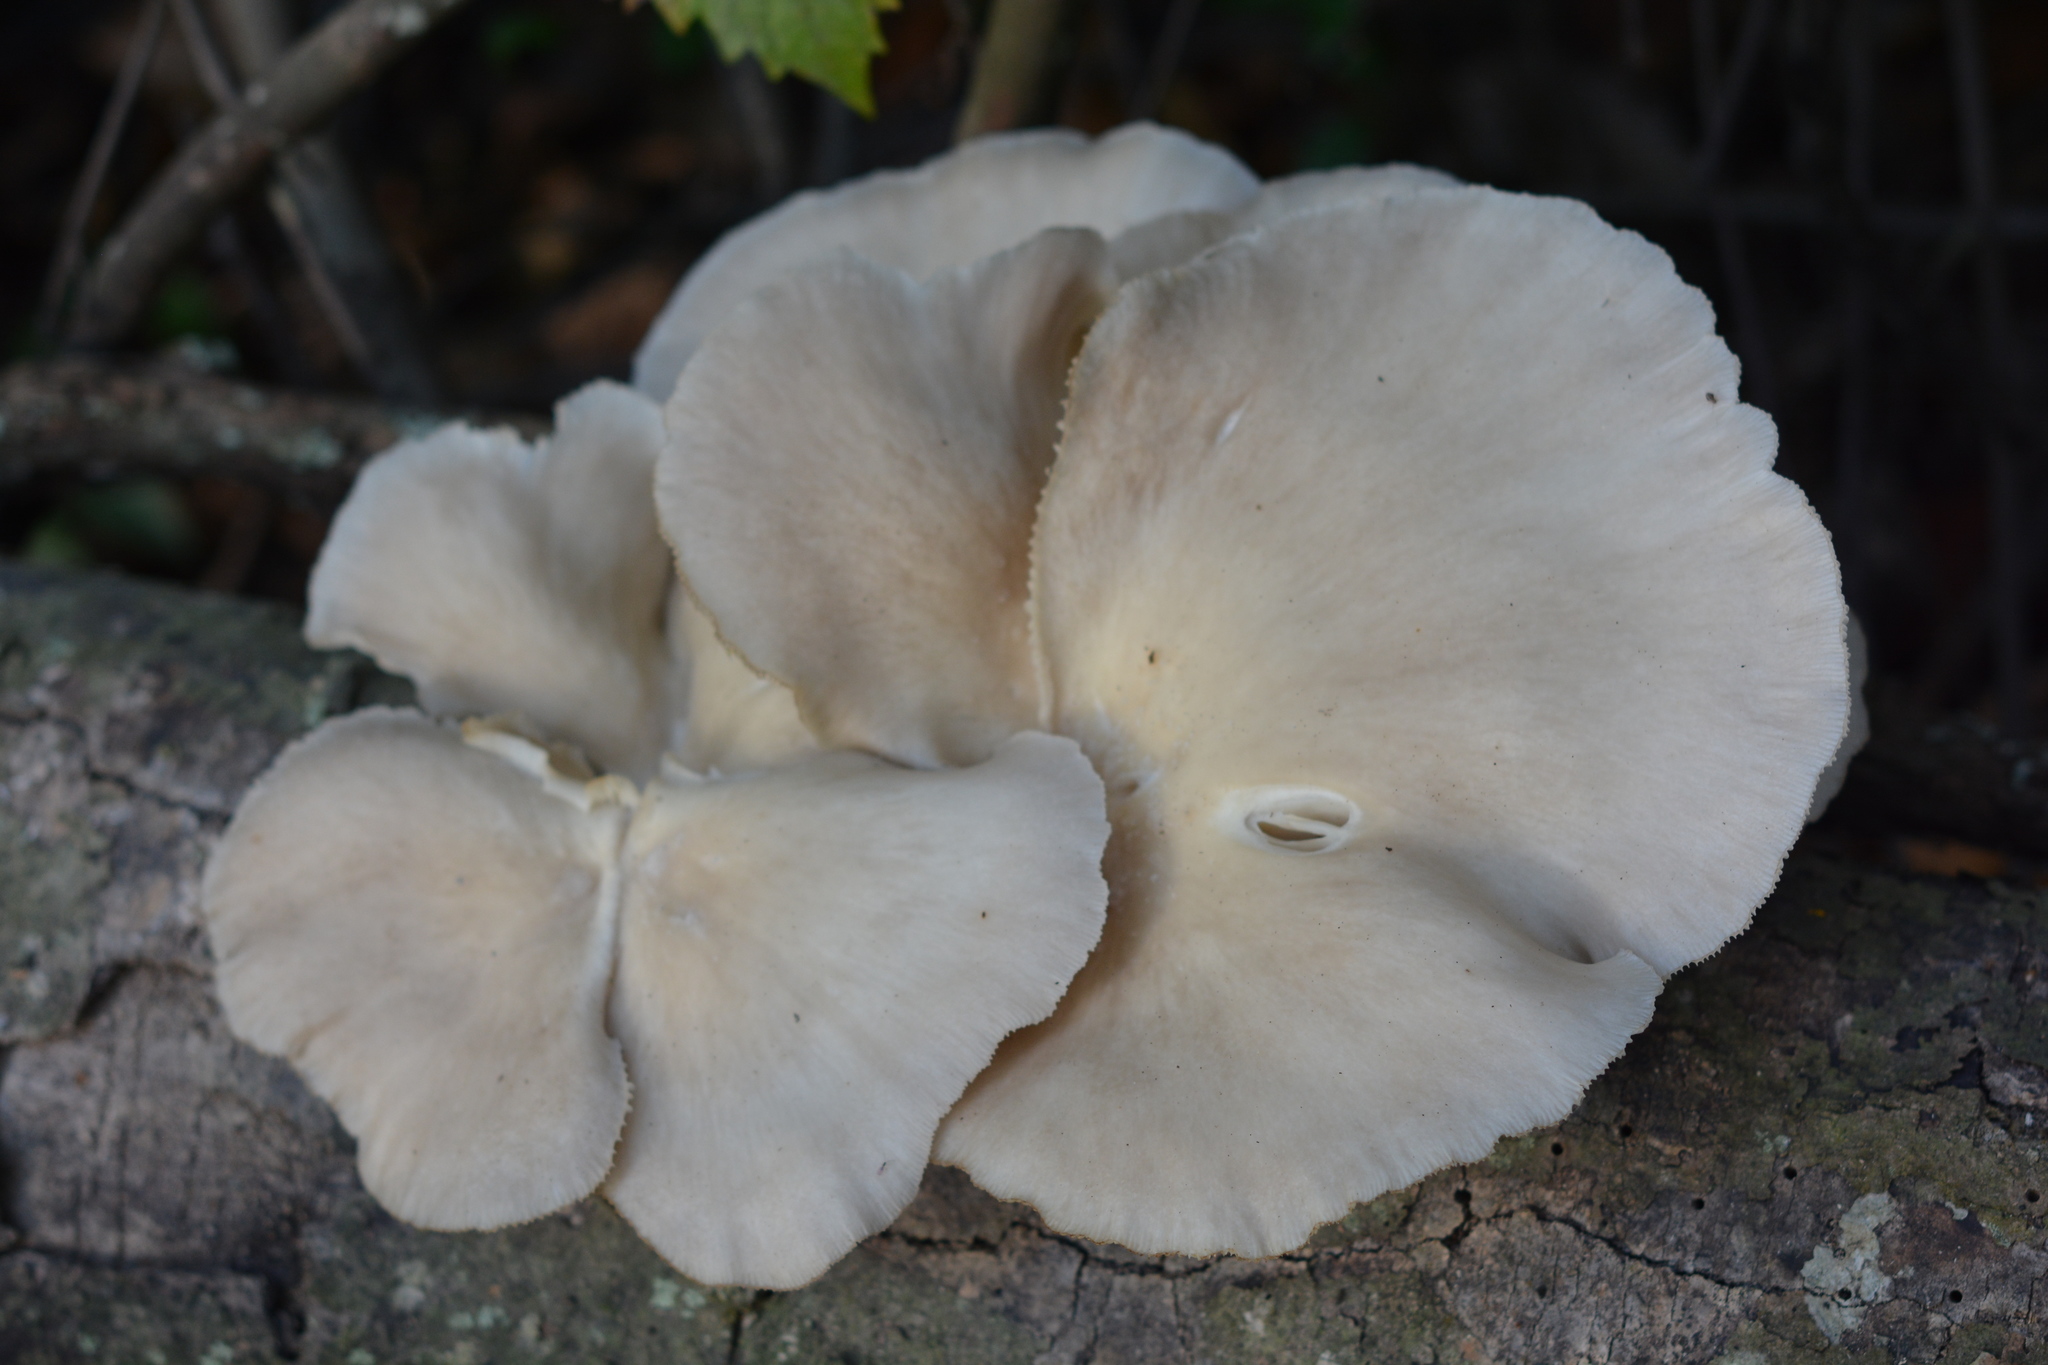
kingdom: Fungi
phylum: Basidiomycota
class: Agaricomycetes
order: Agaricales
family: Pleurotaceae
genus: Pleurotus
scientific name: Pleurotus ostreatus
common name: Oyster mushroom
